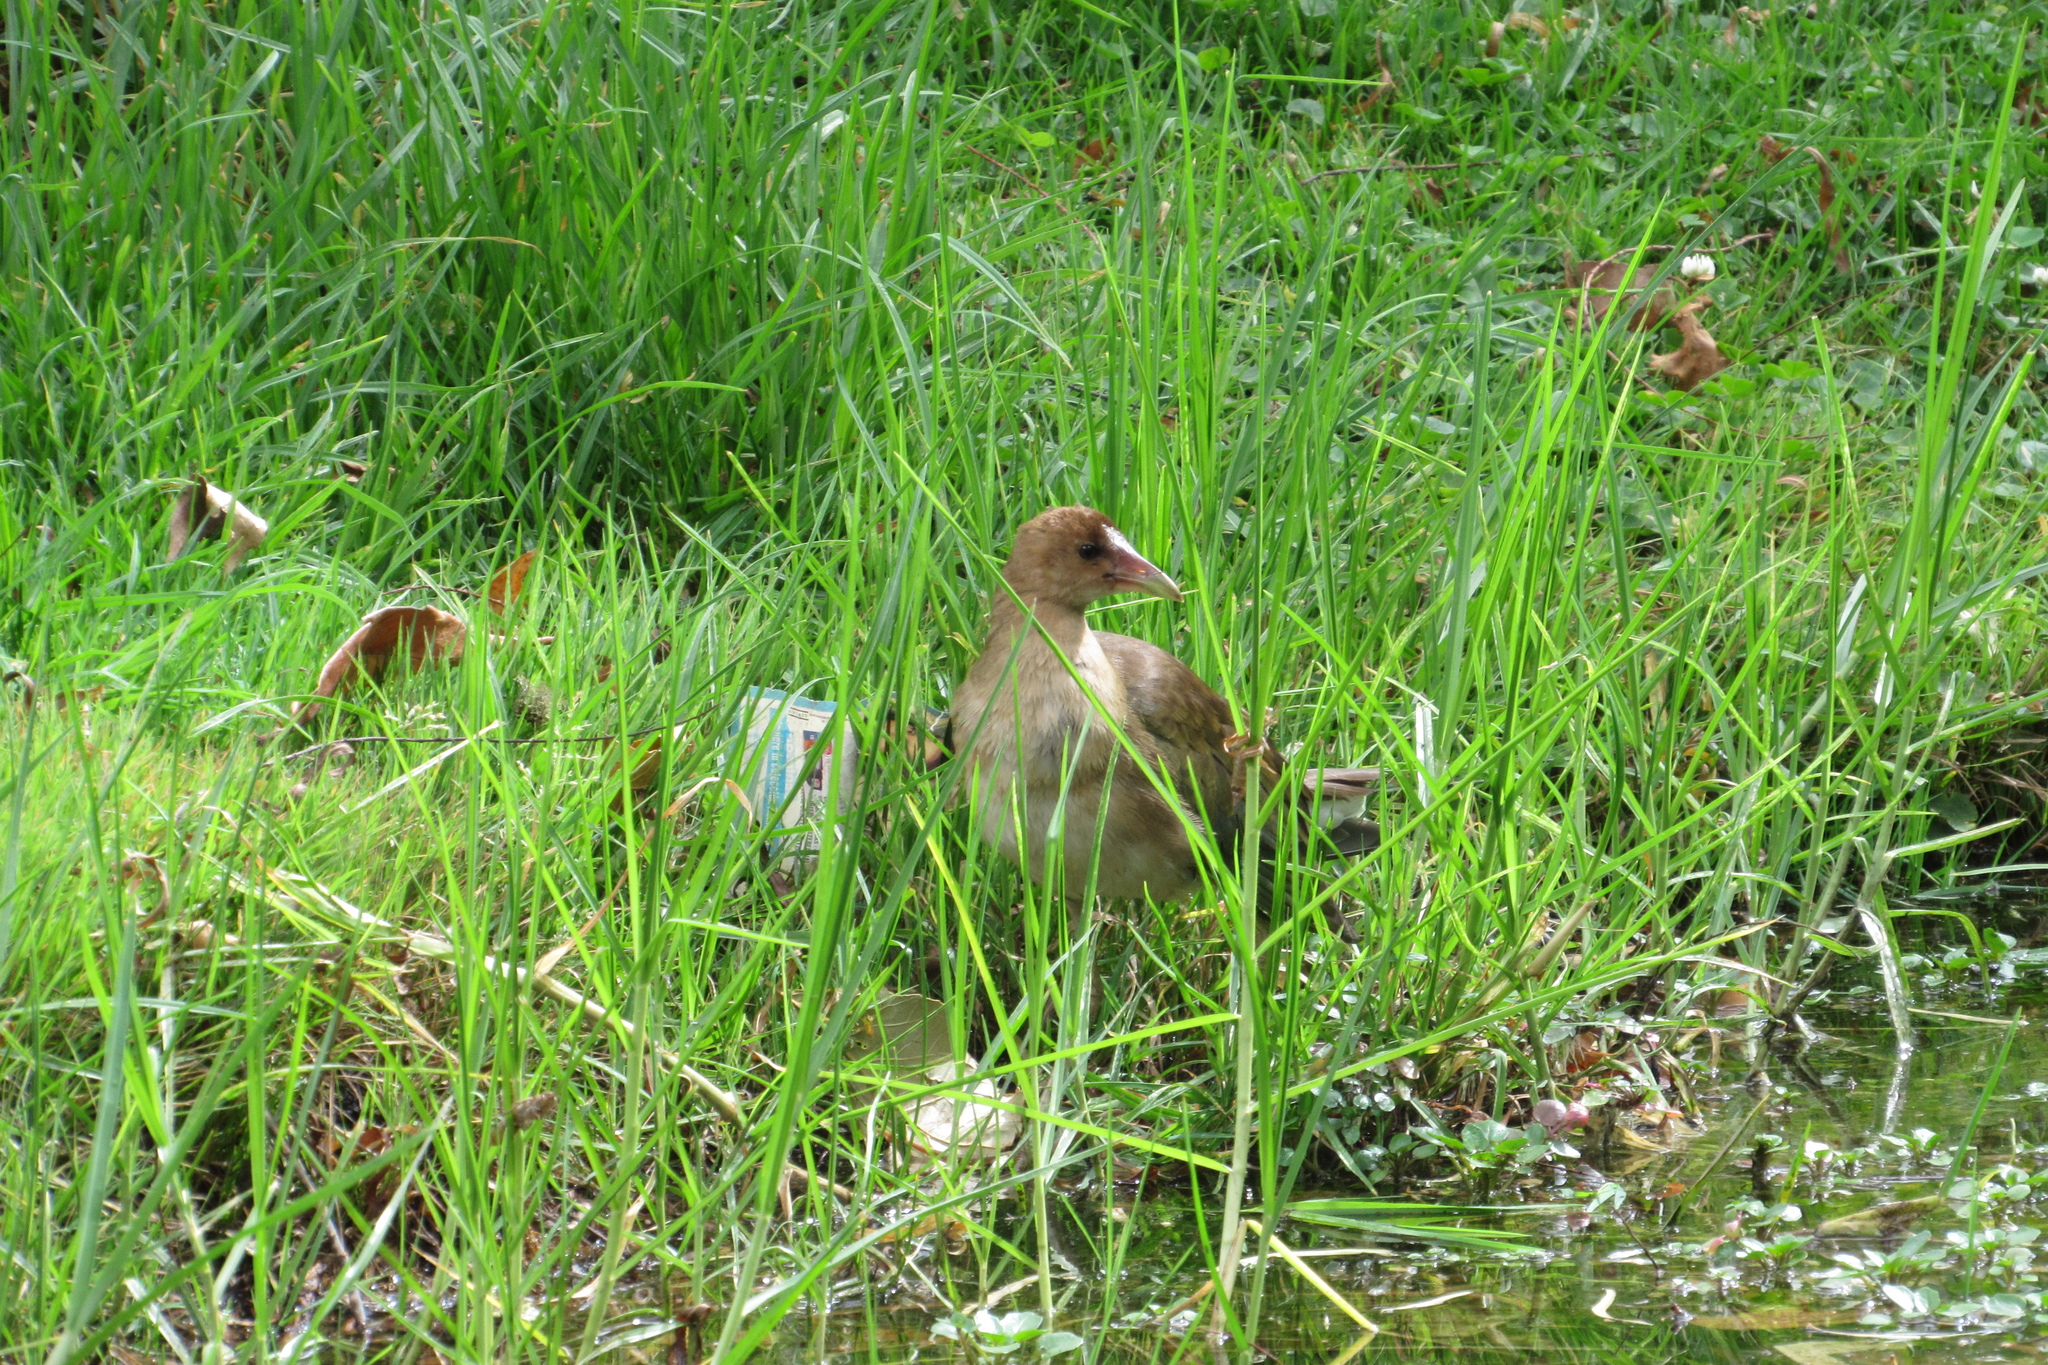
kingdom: Animalia
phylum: Chordata
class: Aves
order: Gruiformes
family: Rallidae
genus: Porphyrio
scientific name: Porphyrio martinica
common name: Purple gallinule
